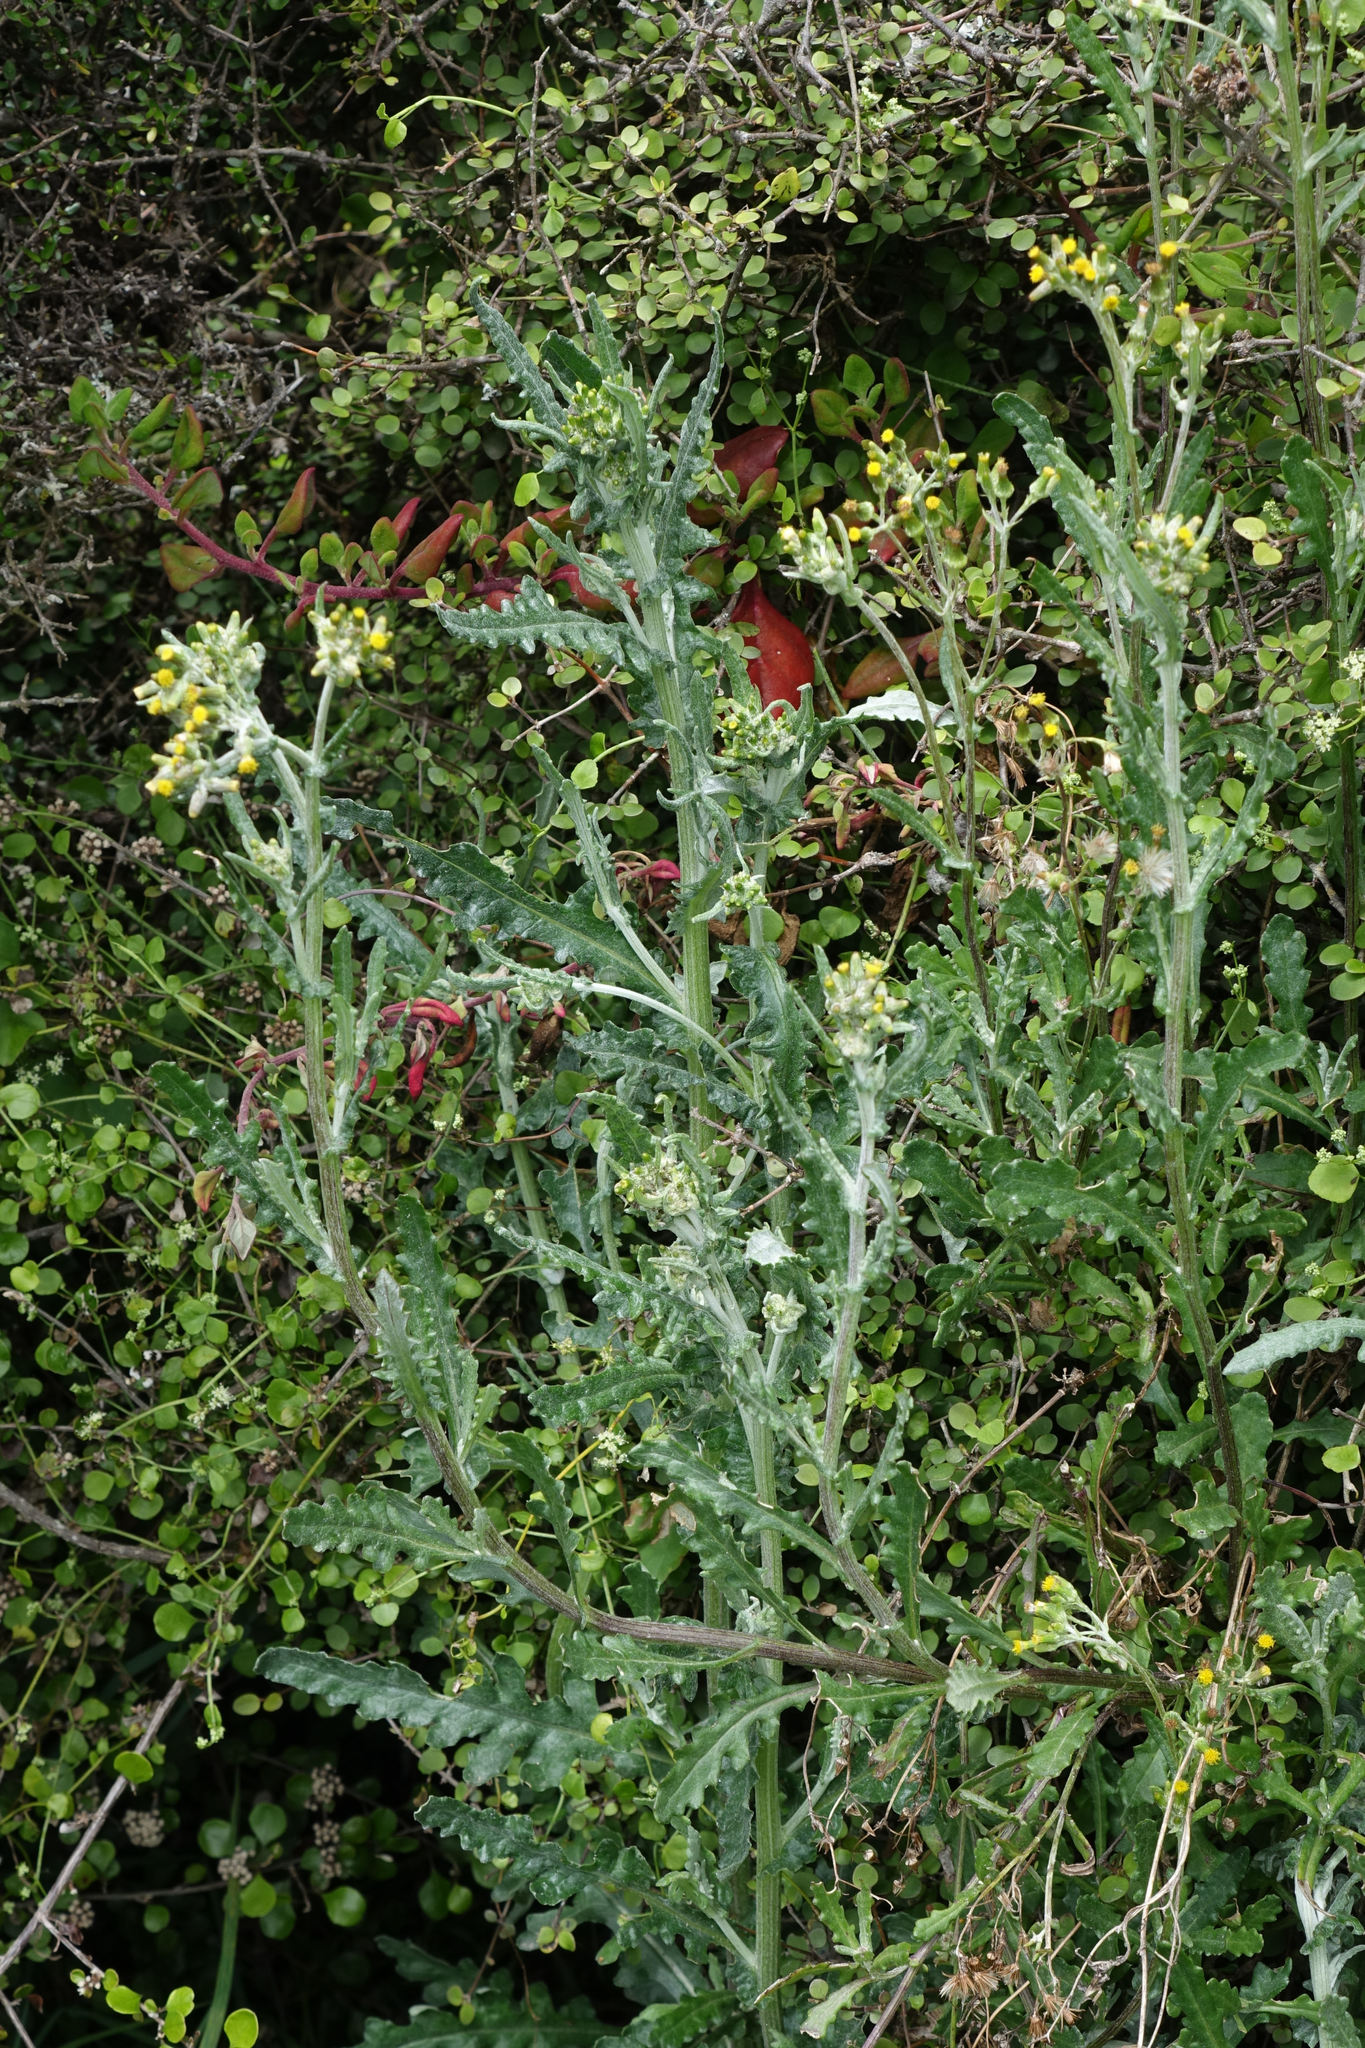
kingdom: Plantae
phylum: Tracheophyta
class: Magnoliopsida
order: Asterales
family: Asteraceae
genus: Senecio
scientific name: Senecio glomeratus
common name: Cutleaf burnweed
